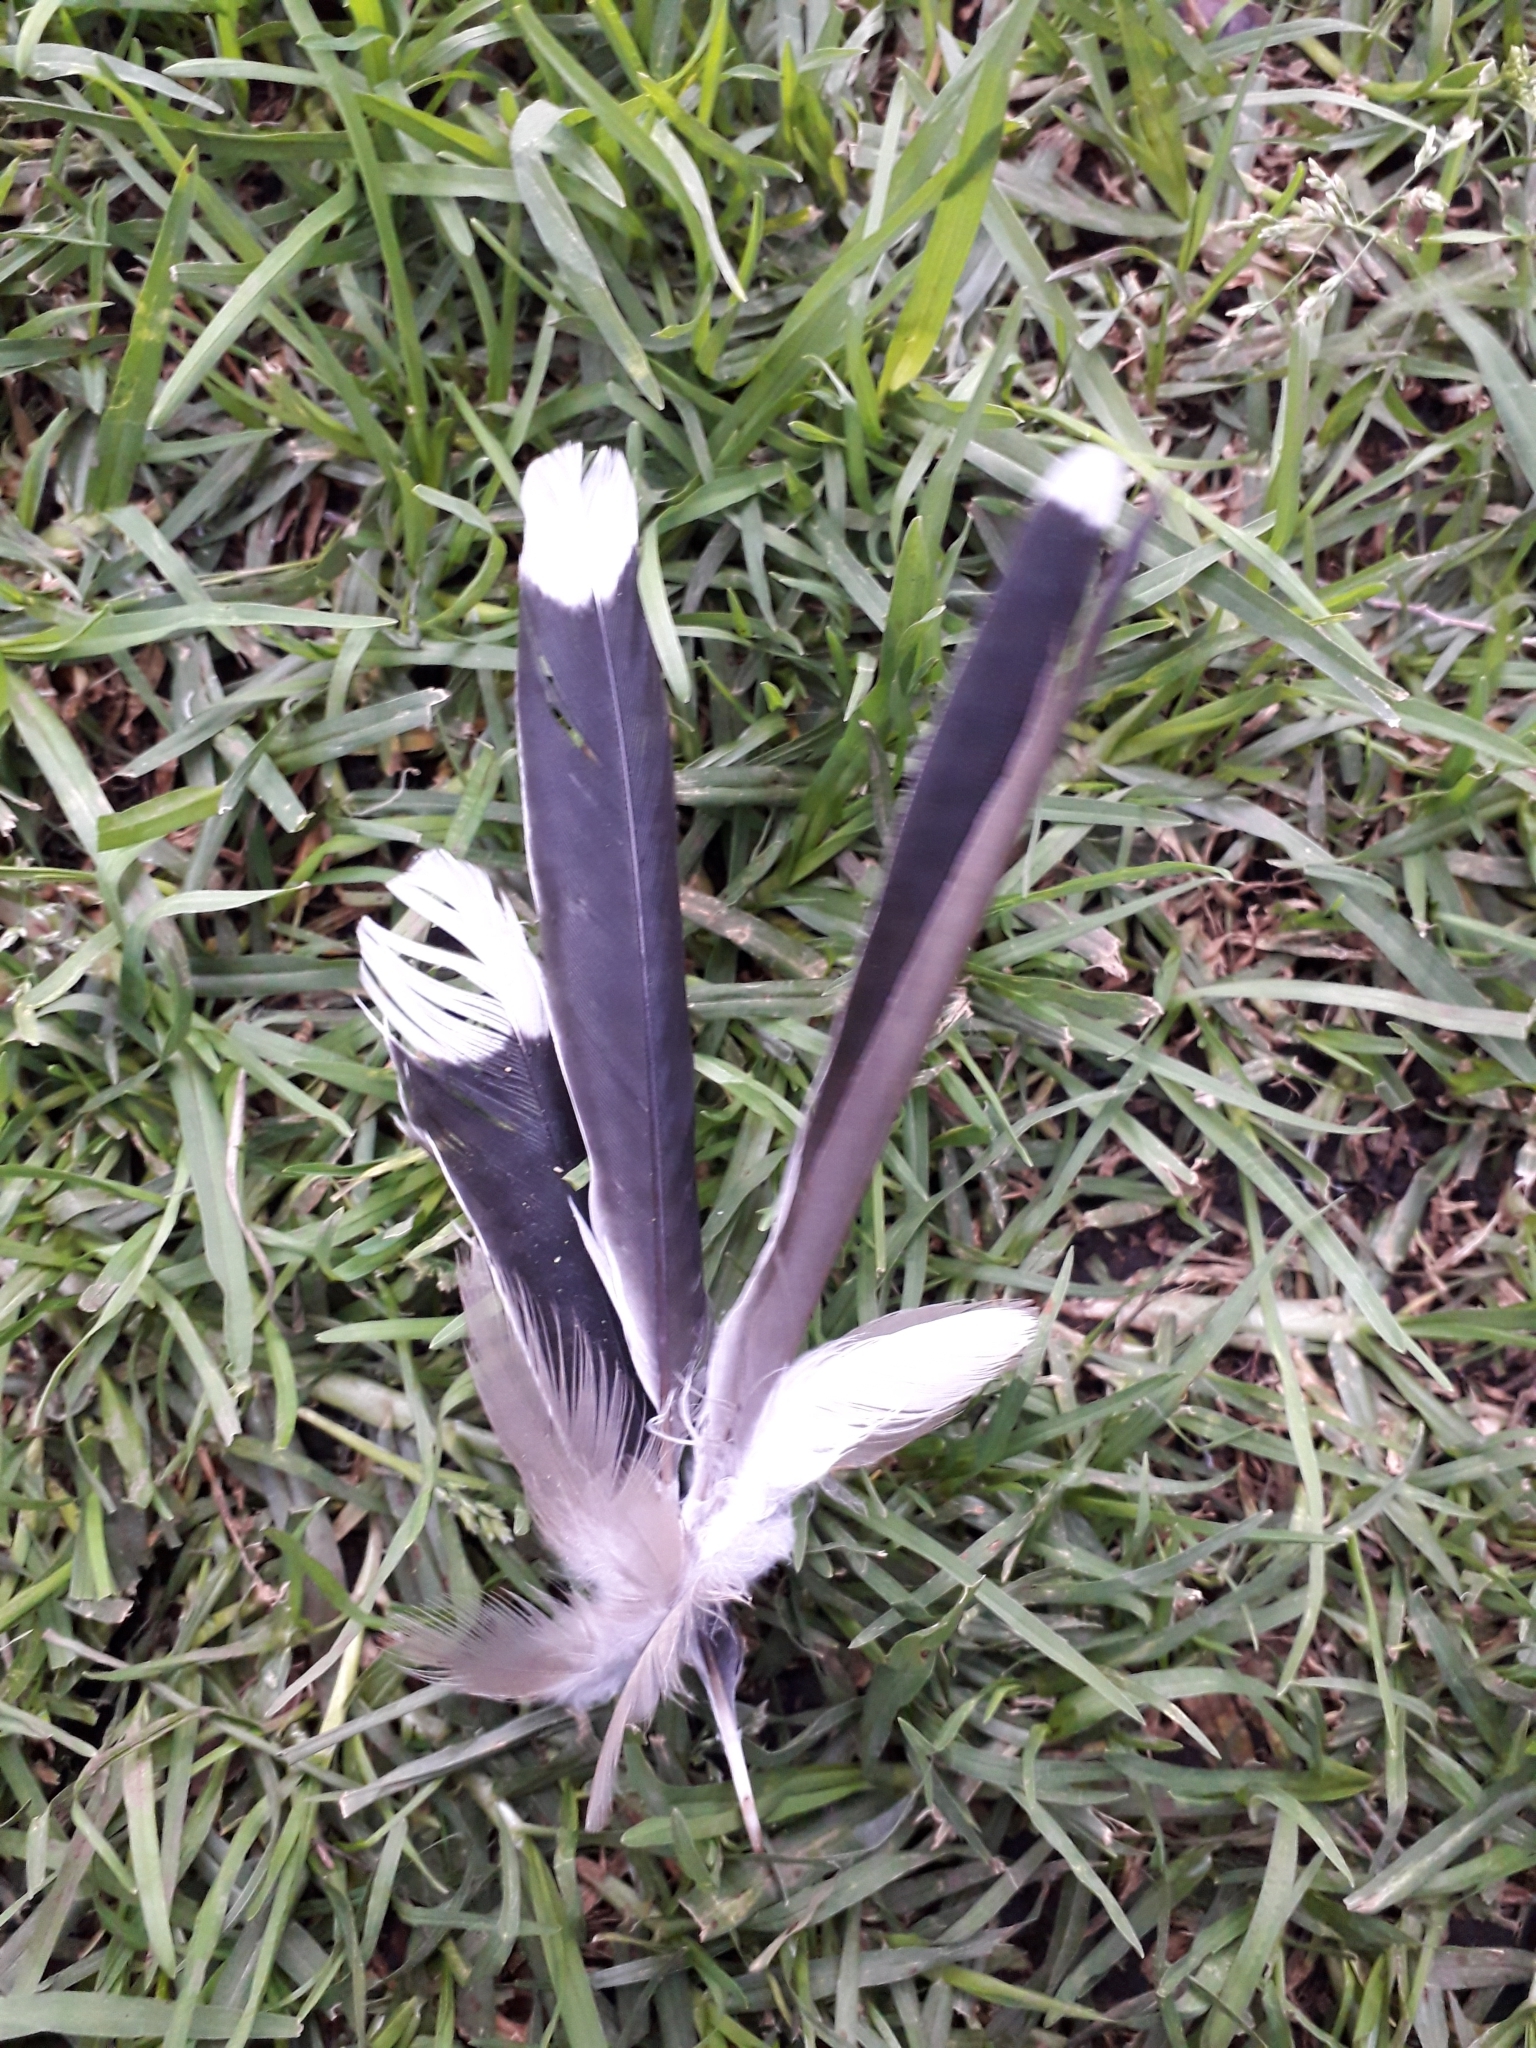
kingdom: Animalia
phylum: Chordata
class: Aves
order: Cuculiformes
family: Cuculidae
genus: Coccyzus
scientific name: Coccyzus americanus
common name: Yellow-billed cuckoo
